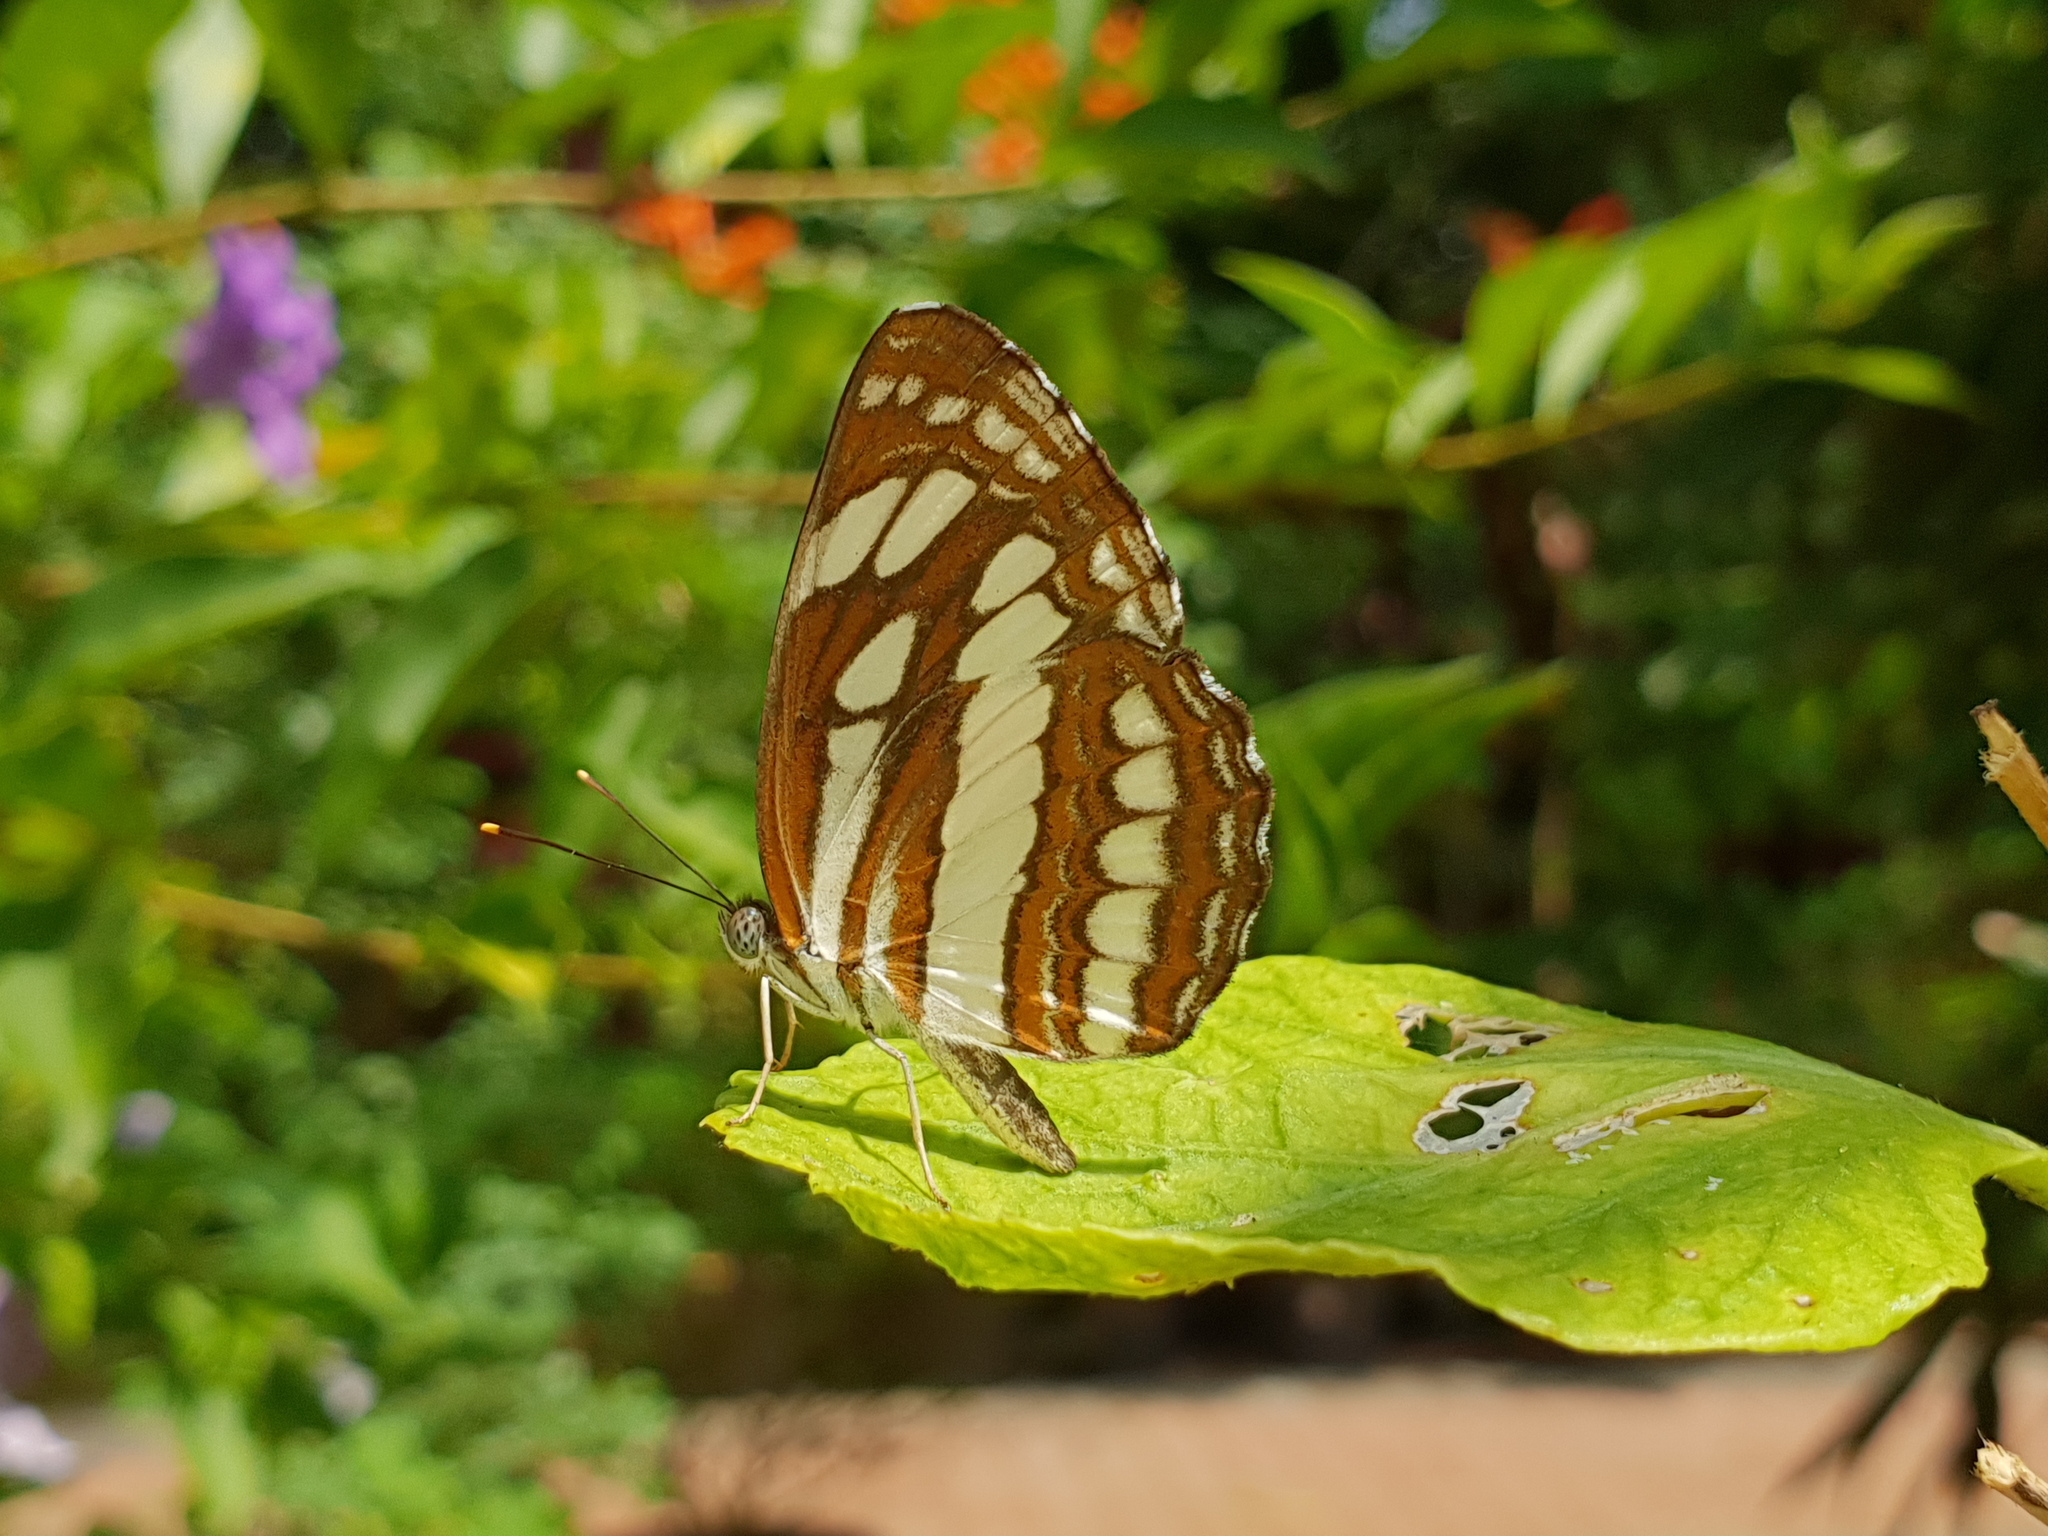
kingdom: Animalia
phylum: Arthropoda
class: Insecta
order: Lepidoptera
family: Nymphalidae
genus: Neptis
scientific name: Neptis hylas
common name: Common sailer
